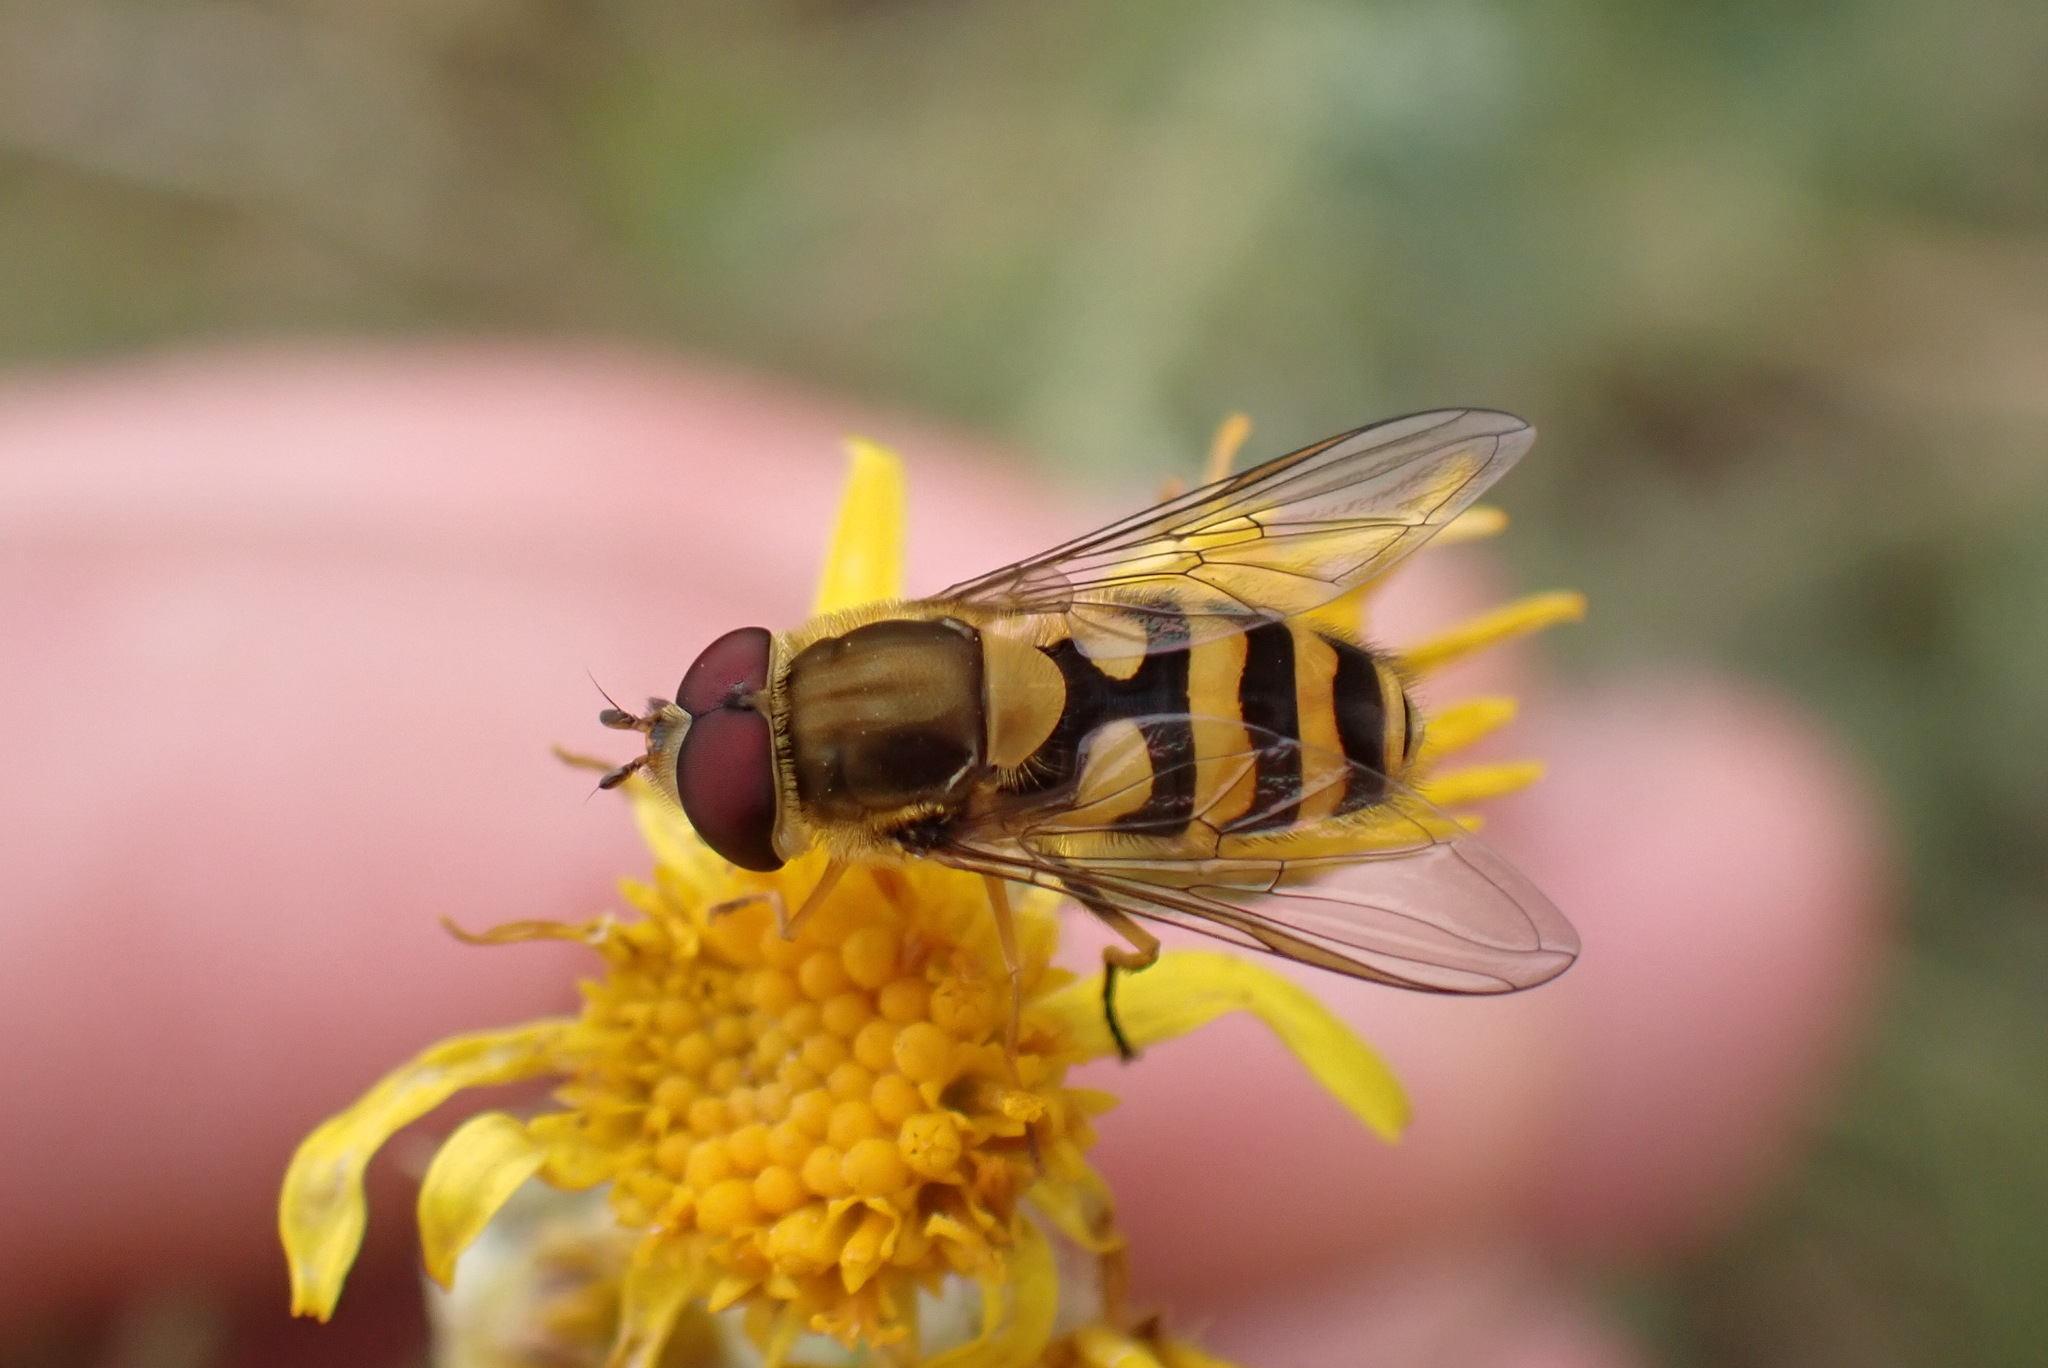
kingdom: Animalia
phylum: Arthropoda
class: Insecta
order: Diptera
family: Syrphidae
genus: Syrphus
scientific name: Syrphus
